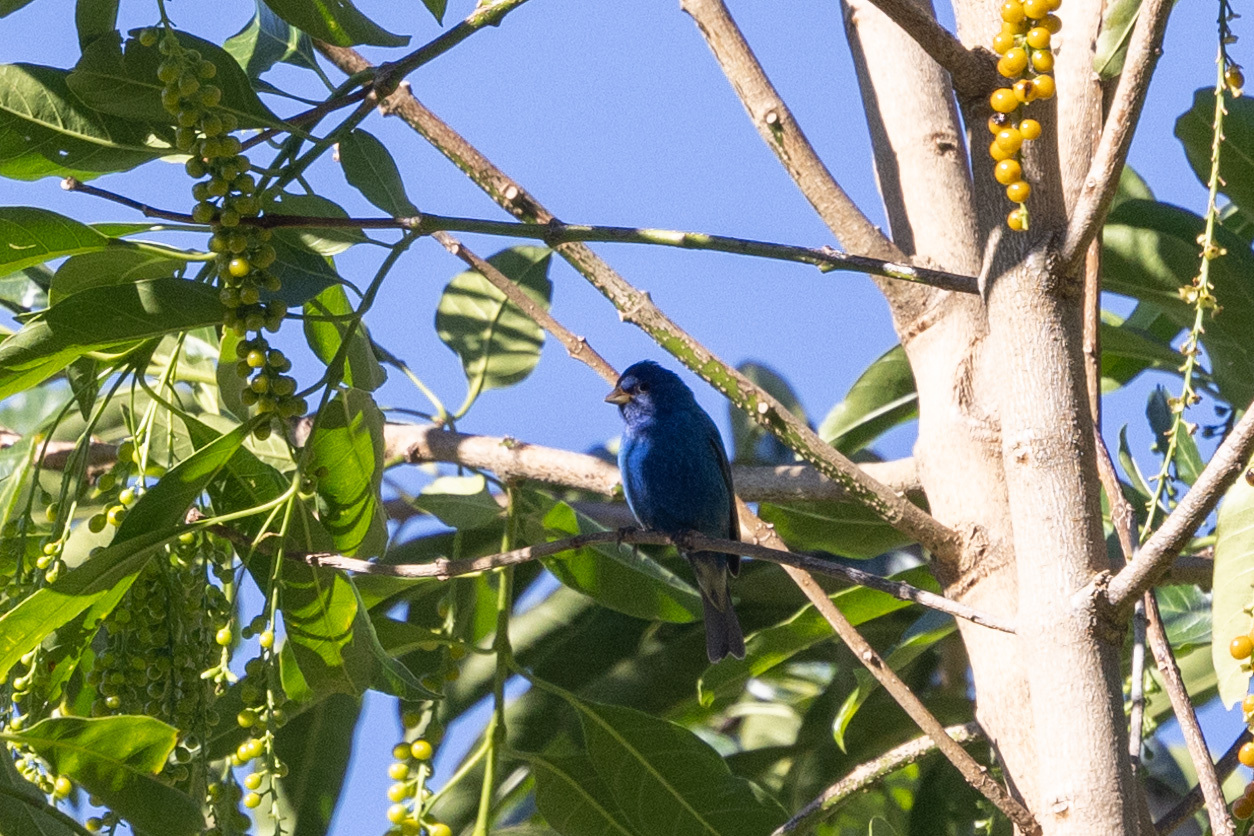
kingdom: Animalia
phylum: Chordata
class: Aves
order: Passeriformes
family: Cardinalidae
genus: Passerina
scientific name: Passerina cyanea
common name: Indigo bunting
